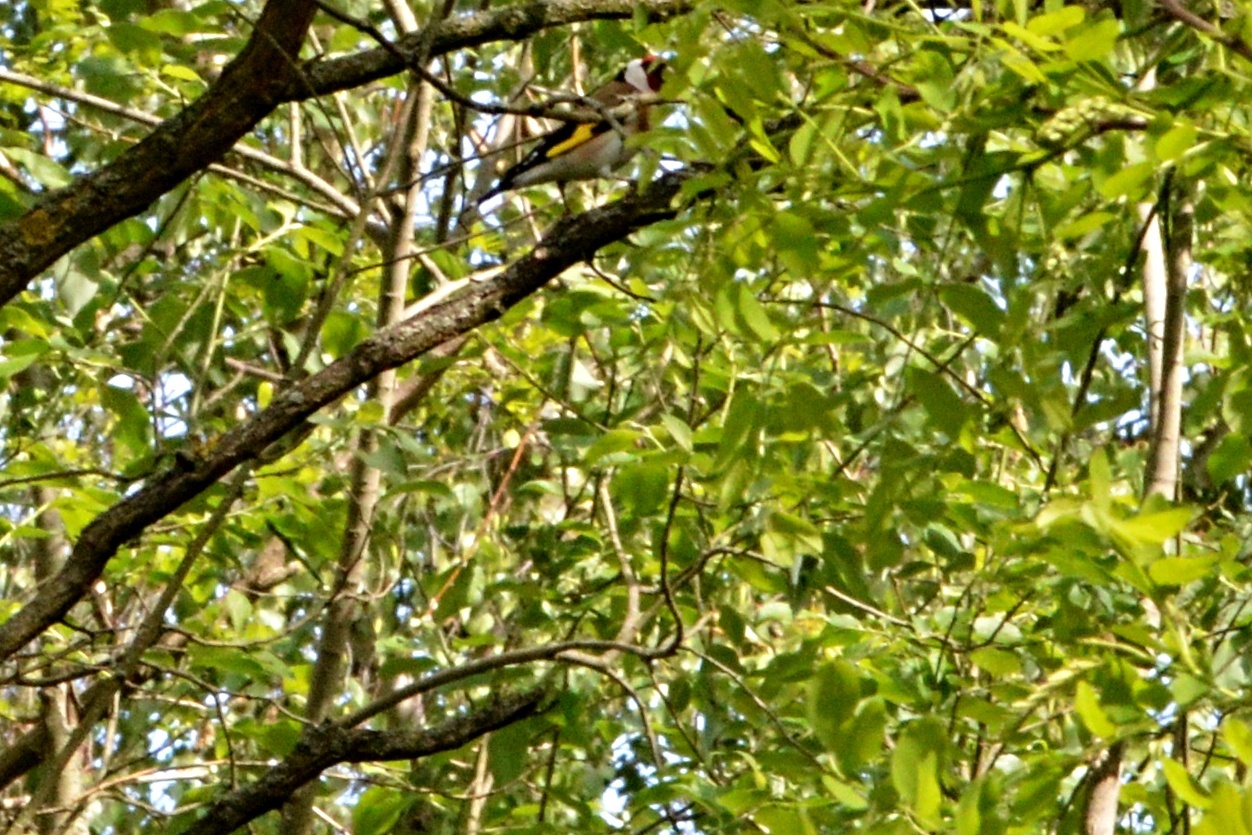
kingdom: Animalia
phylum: Chordata
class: Aves
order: Passeriformes
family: Fringillidae
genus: Carduelis
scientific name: Carduelis carduelis
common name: European goldfinch
